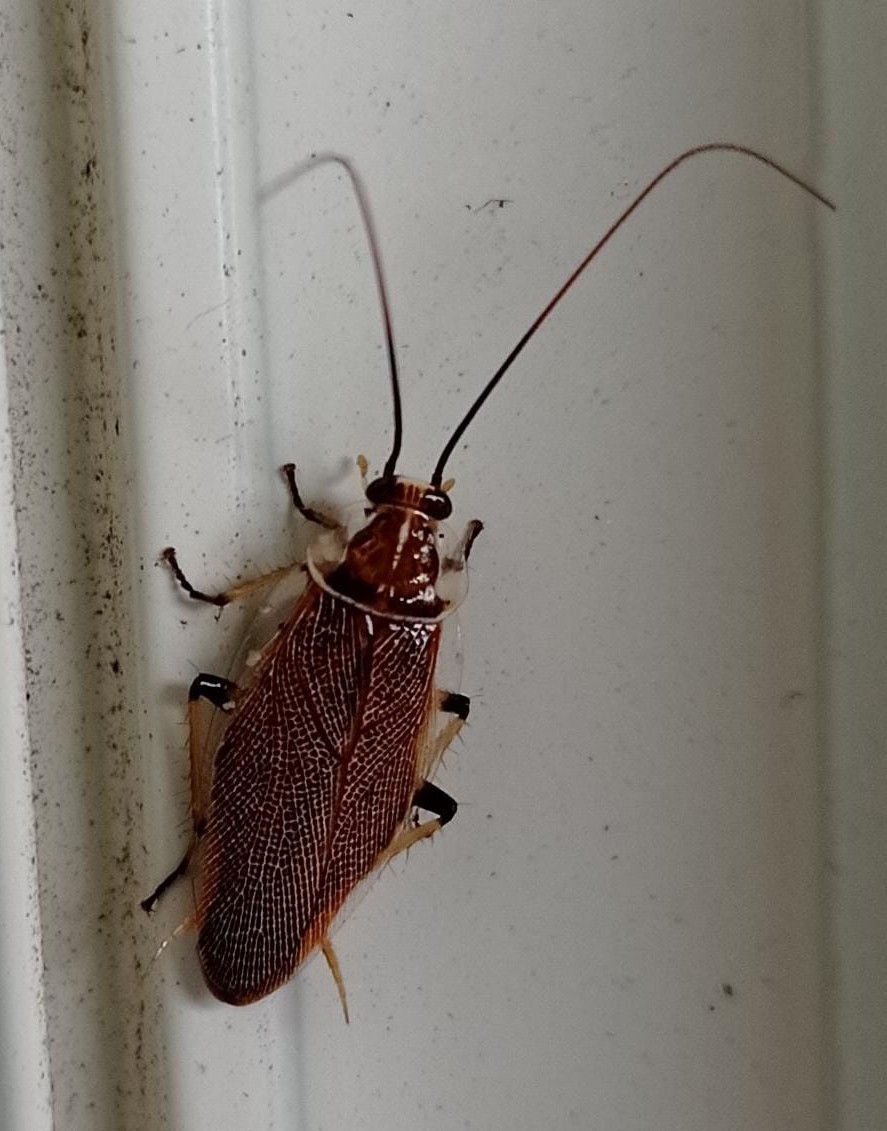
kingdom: Animalia
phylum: Arthropoda
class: Insecta
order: Blattodea
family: Ectobiidae
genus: Balta
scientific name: Balta bicolor
